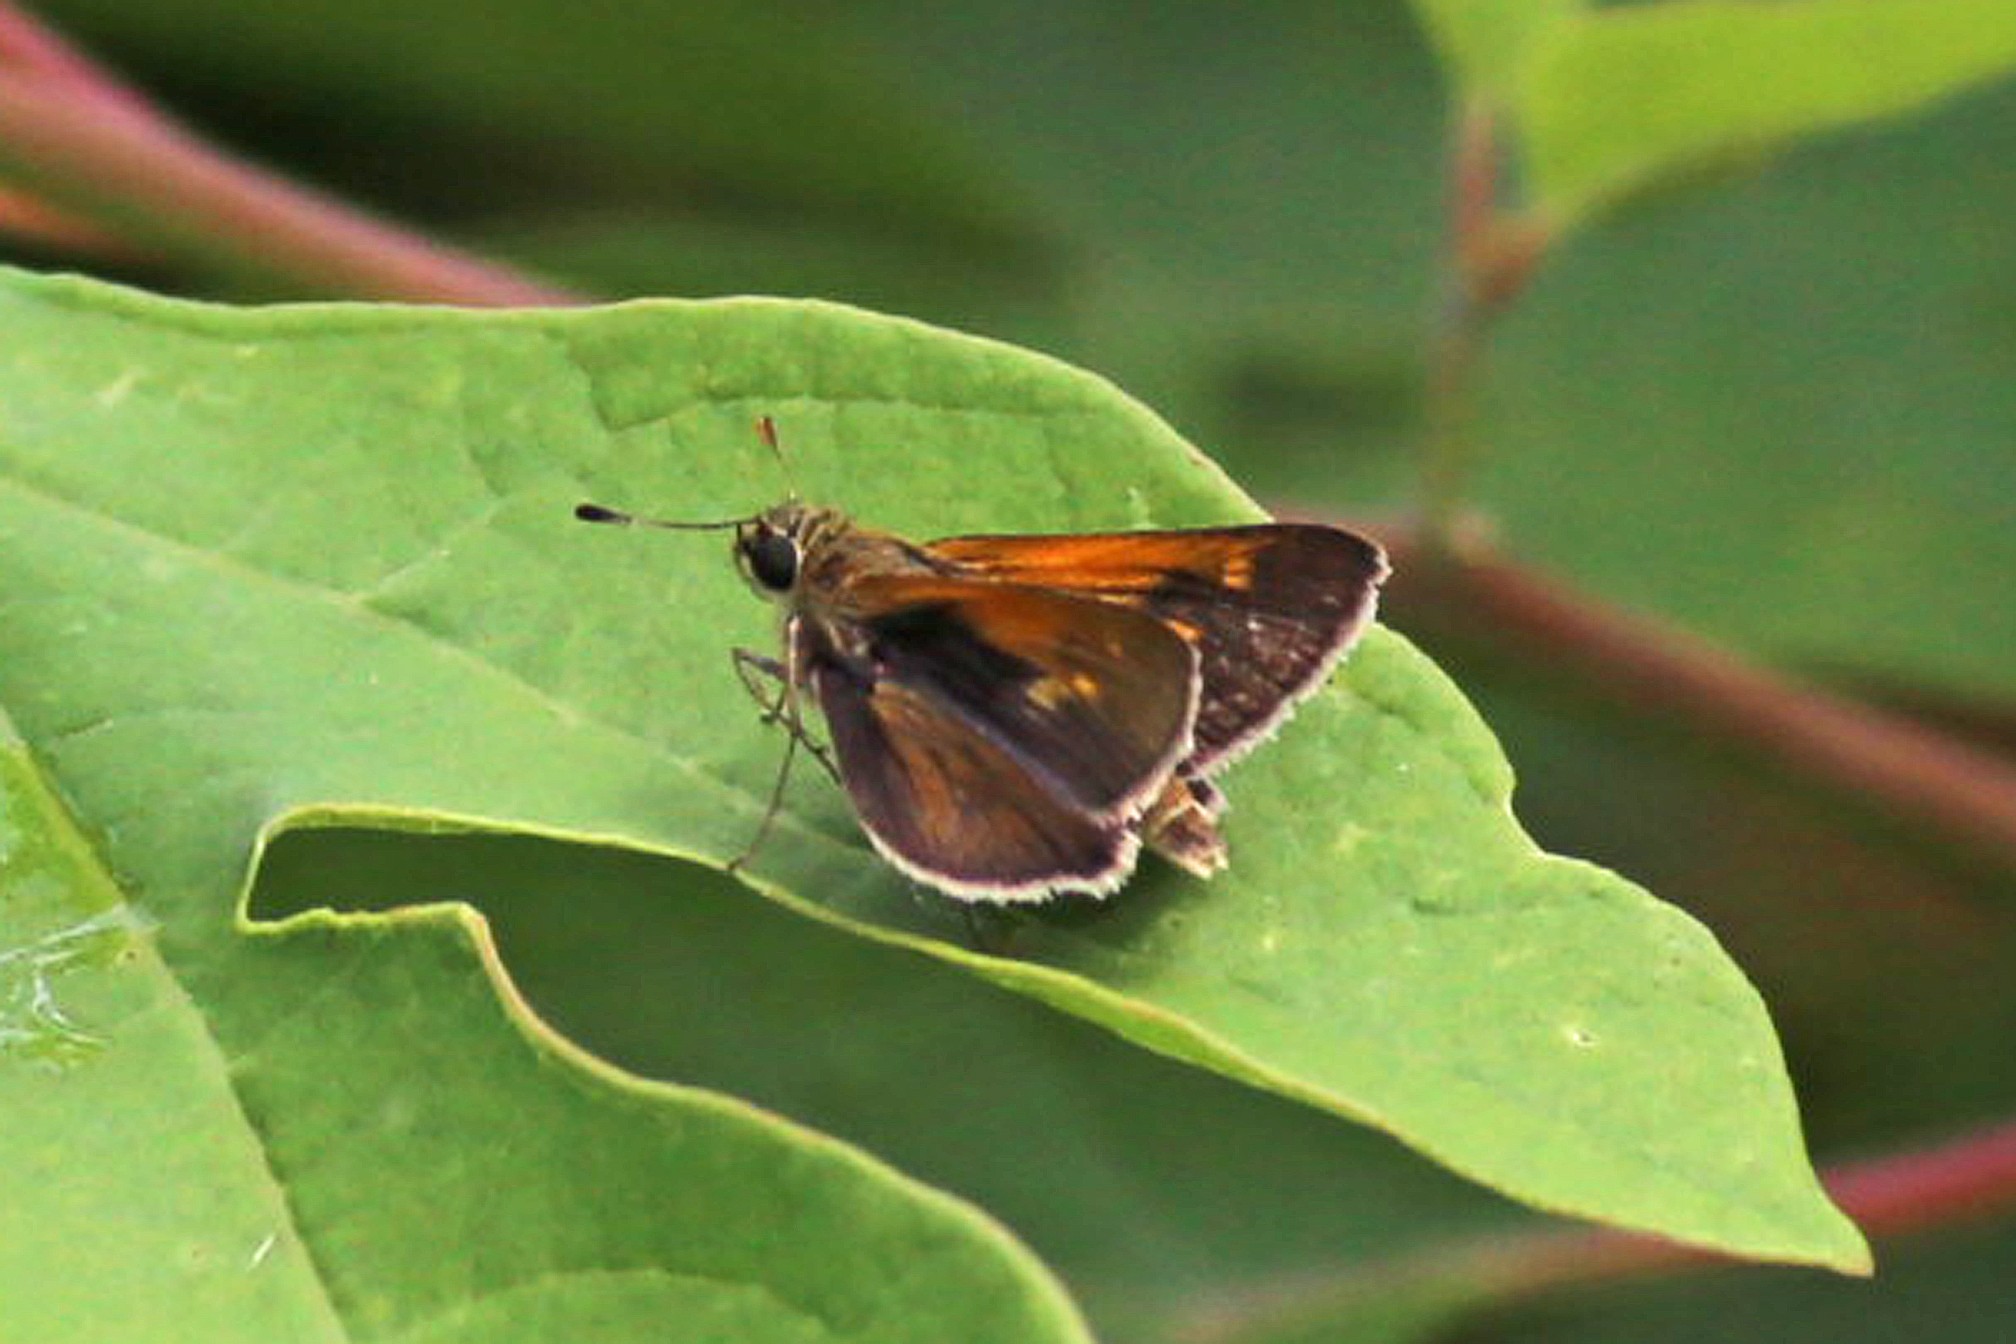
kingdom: Animalia
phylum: Arthropoda
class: Insecta
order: Lepidoptera
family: Hesperiidae
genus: Polites
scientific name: Polites themistocles
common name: Tawny-edged skipper
